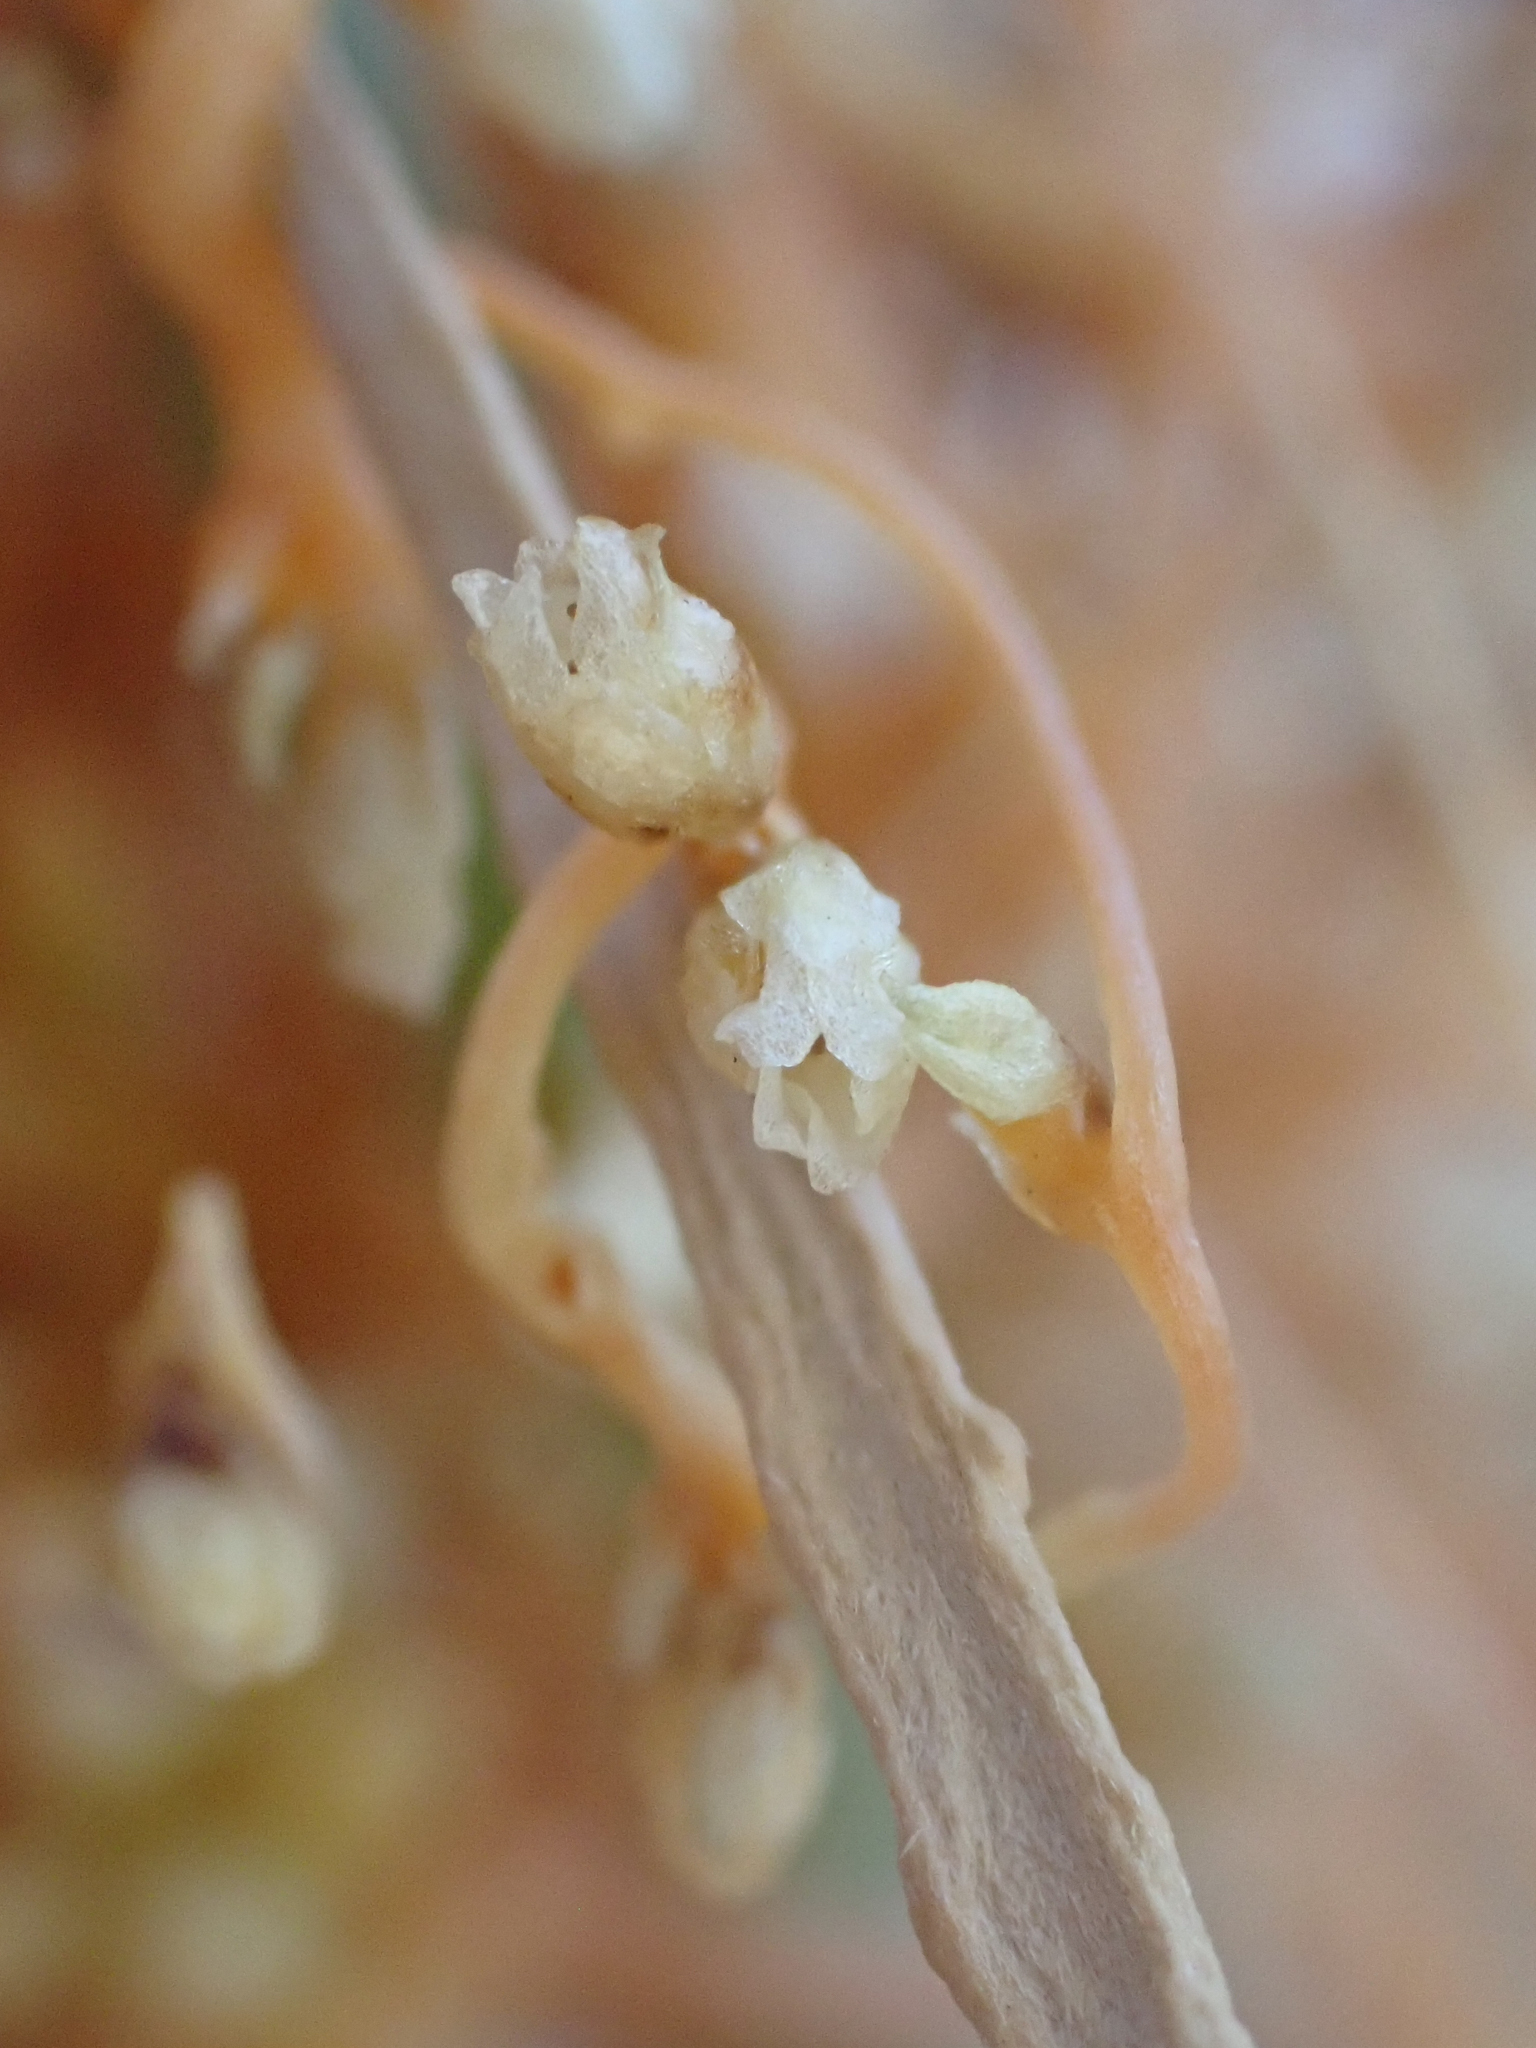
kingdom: Plantae
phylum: Tracheophyta
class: Magnoliopsida
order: Solanales
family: Convolvulaceae
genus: Cuscuta
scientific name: Cuscuta psorothamnensis
